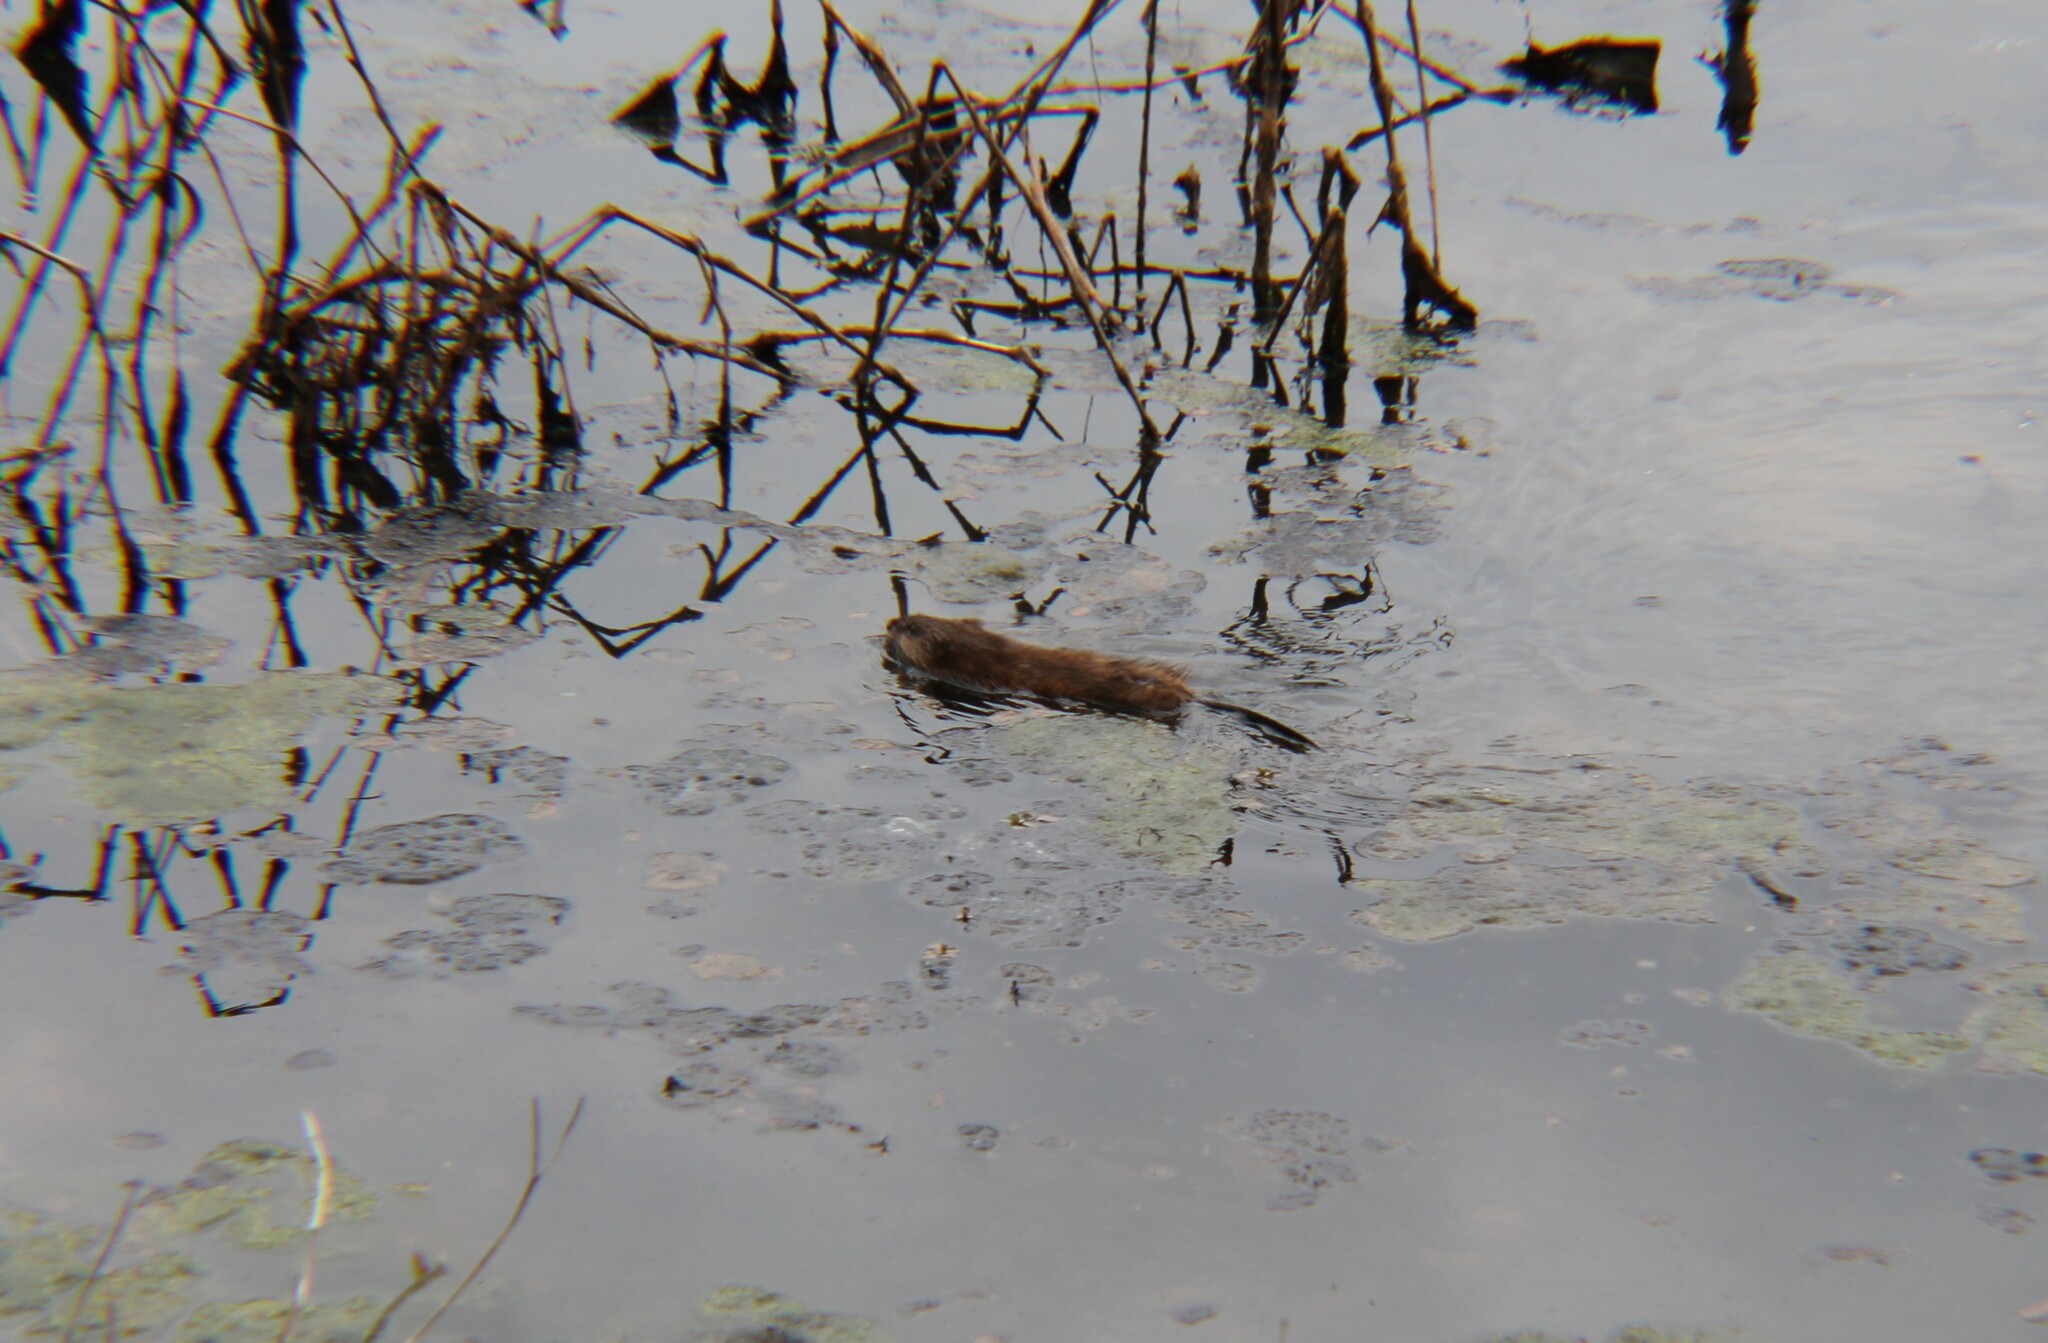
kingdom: Animalia
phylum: Chordata
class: Mammalia
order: Rodentia
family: Cricetidae
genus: Ondatra
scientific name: Ondatra zibethicus
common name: Muskrat
